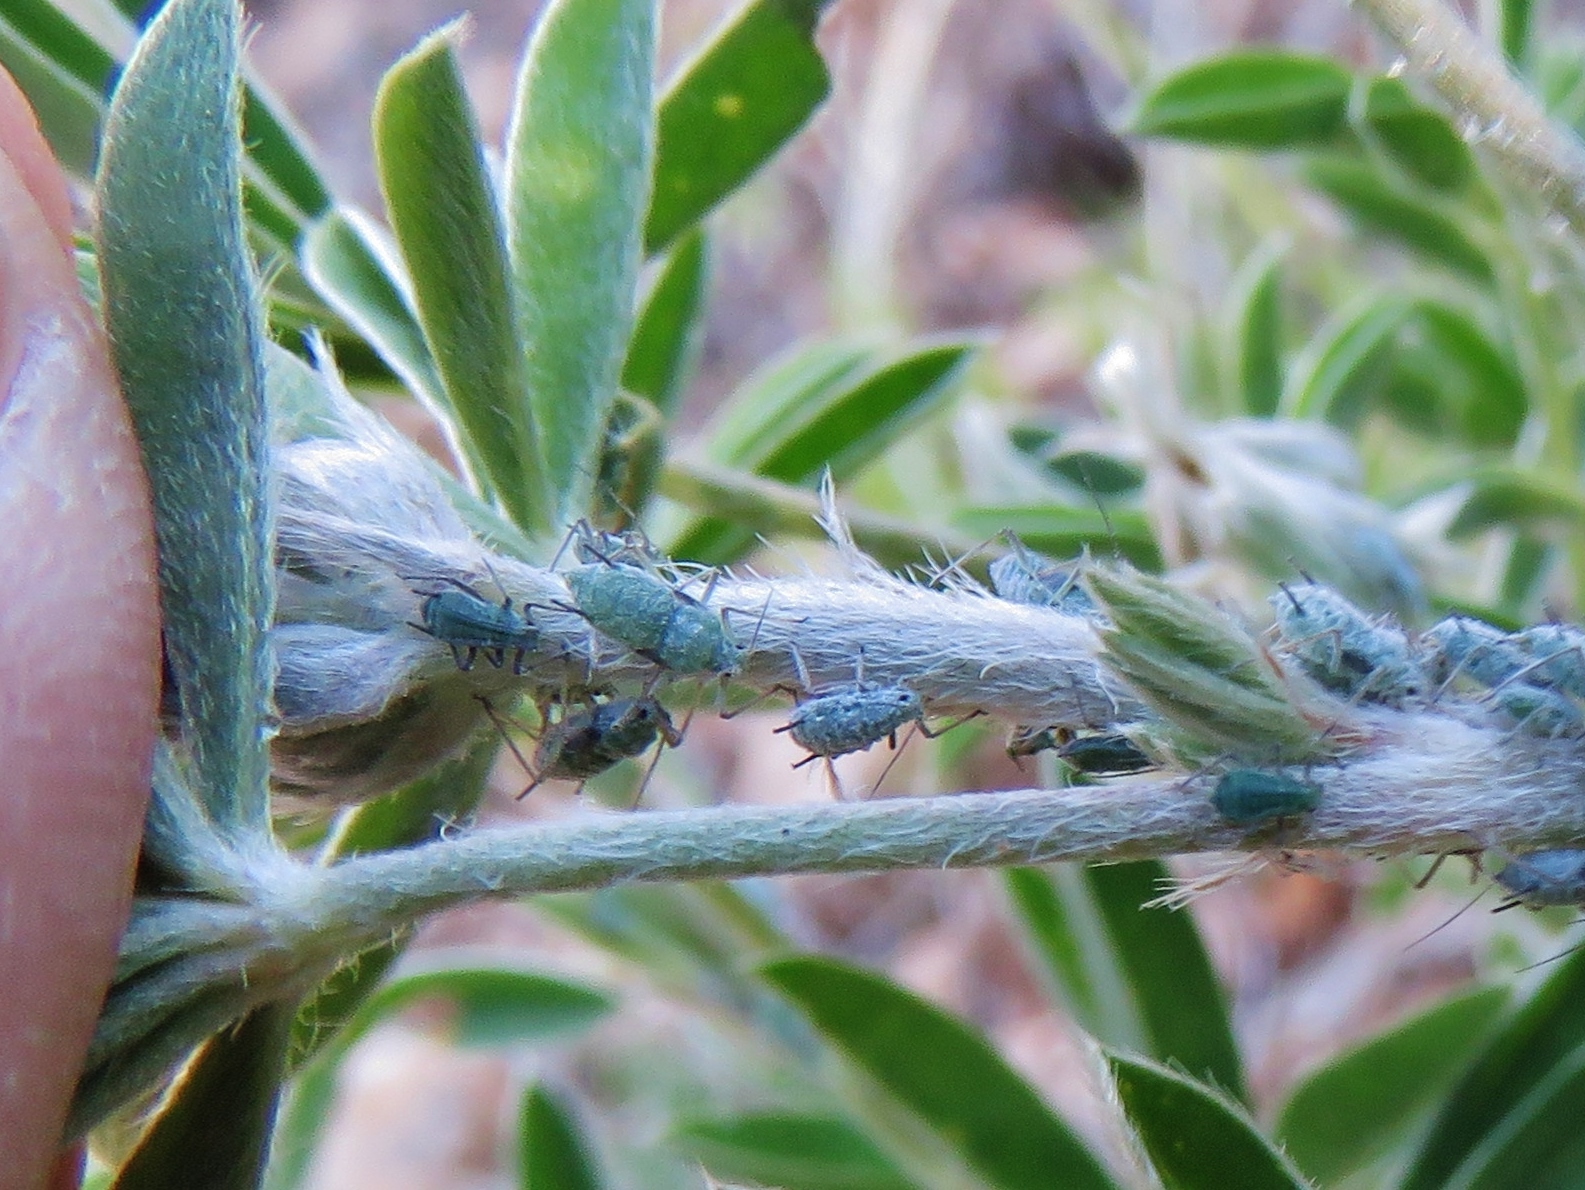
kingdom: Animalia
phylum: Arthropoda
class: Insecta
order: Hemiptera
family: Aphididae
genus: Macrosiphum
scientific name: Macrosiphum albifrons
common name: Lupine aphid
